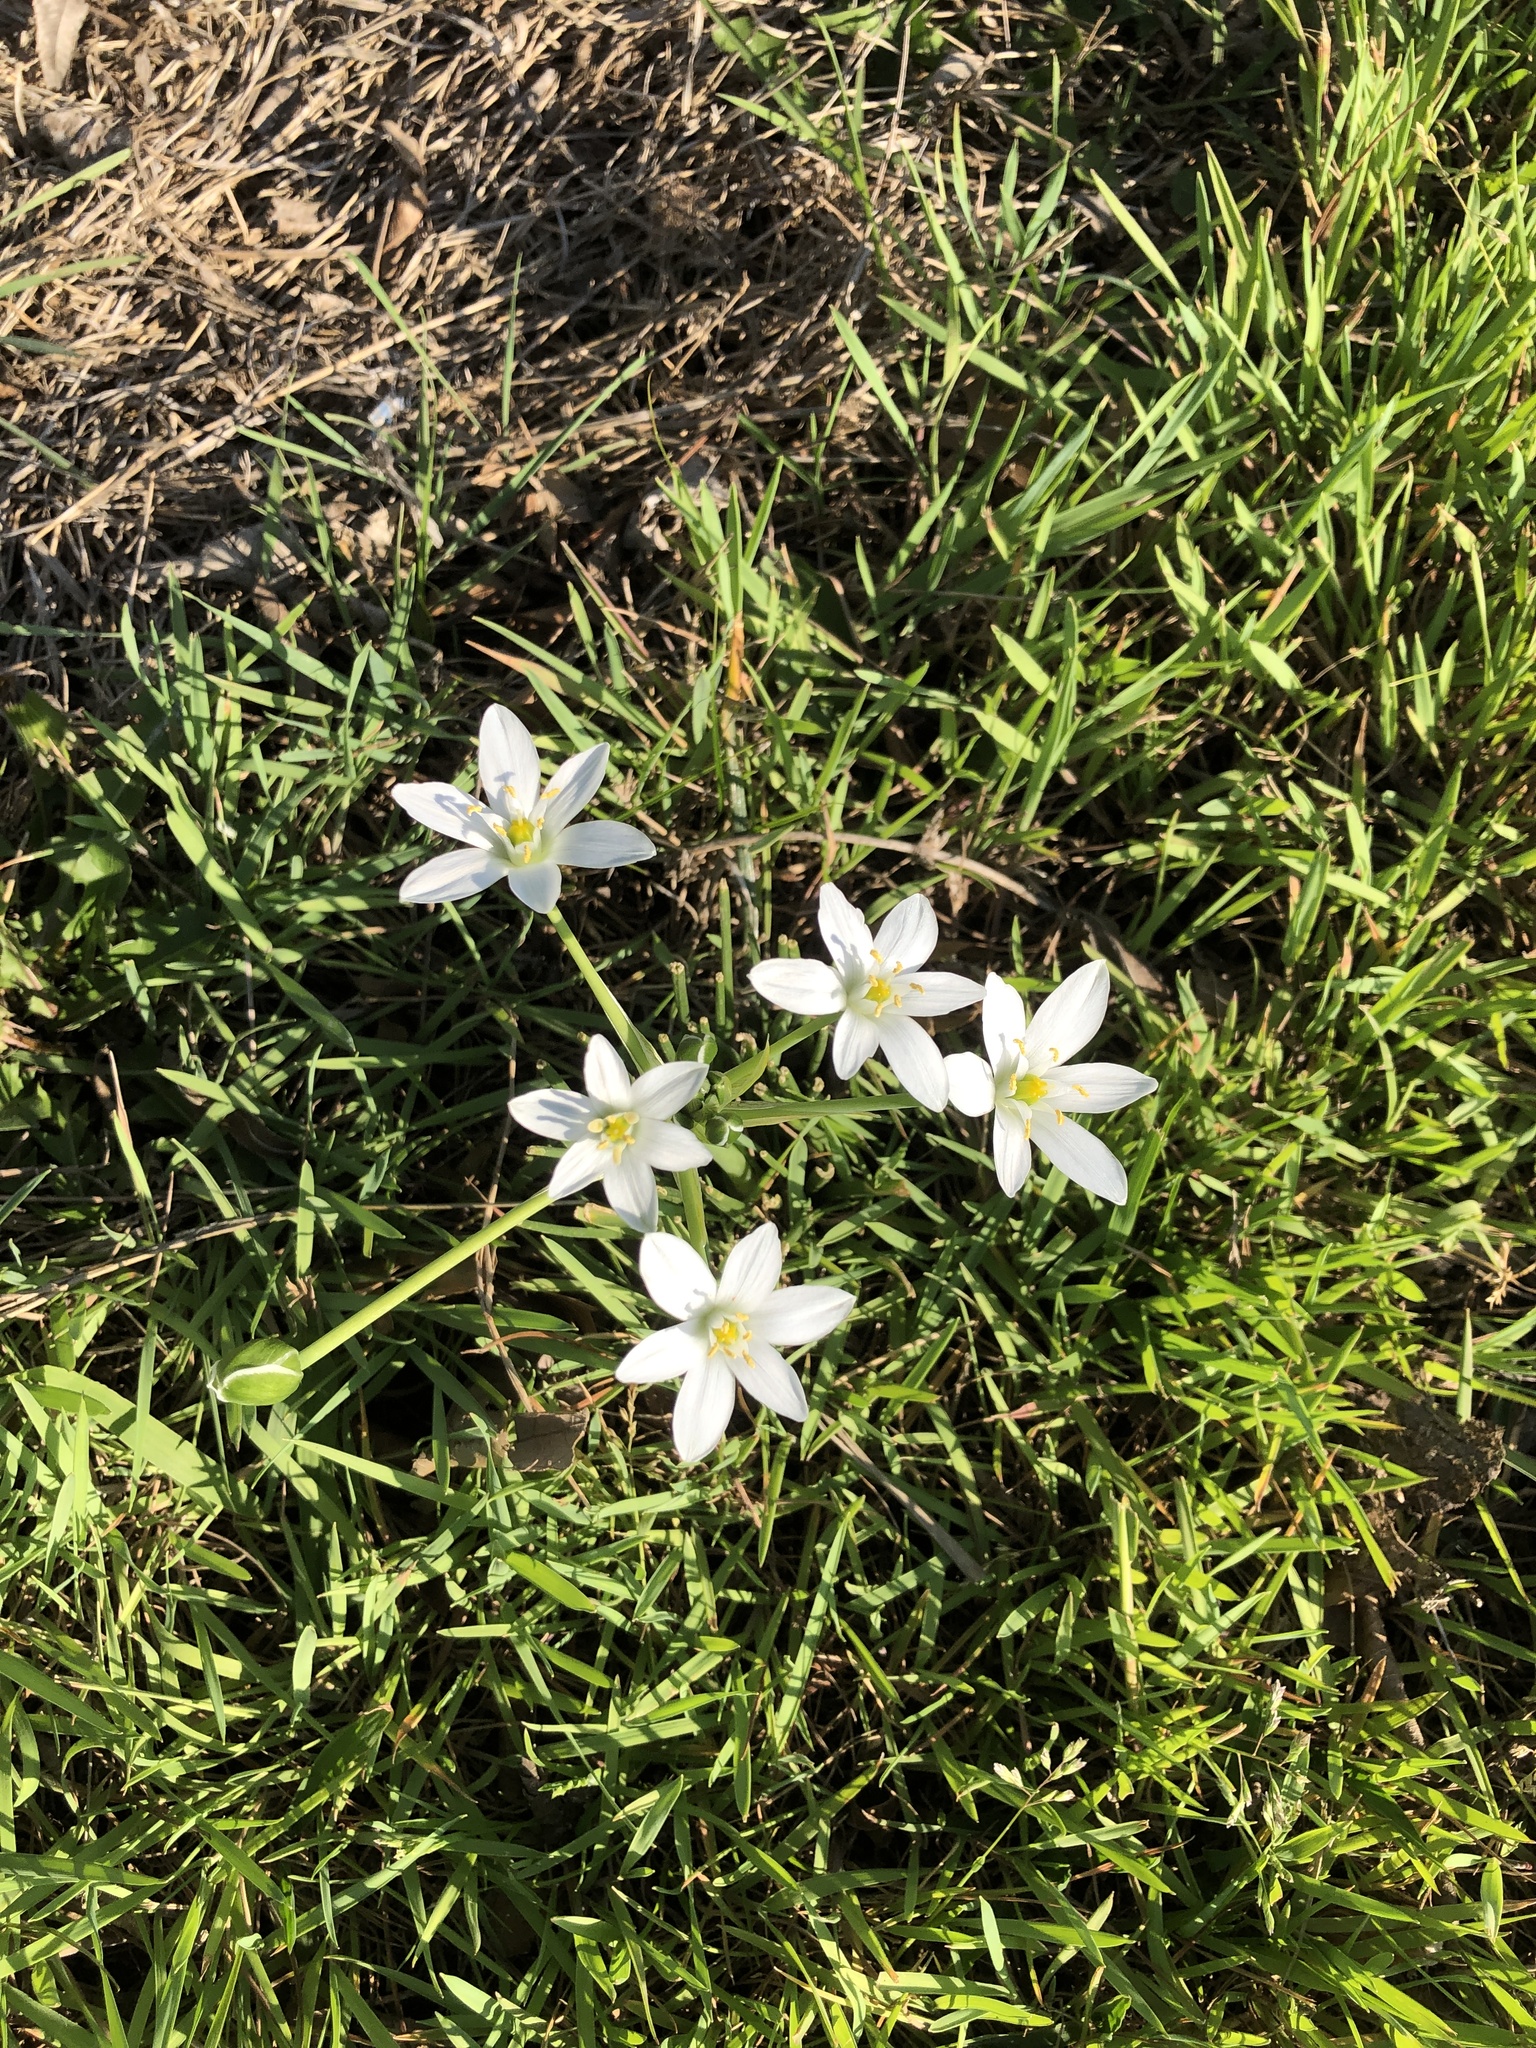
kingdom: Plantae
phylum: Tracheophyta
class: Liliopsida
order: Asparagales
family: Asparagaceae
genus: Ornithogalum
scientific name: Ornithogalum umbellatum
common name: Garden star-of-bethlehem
